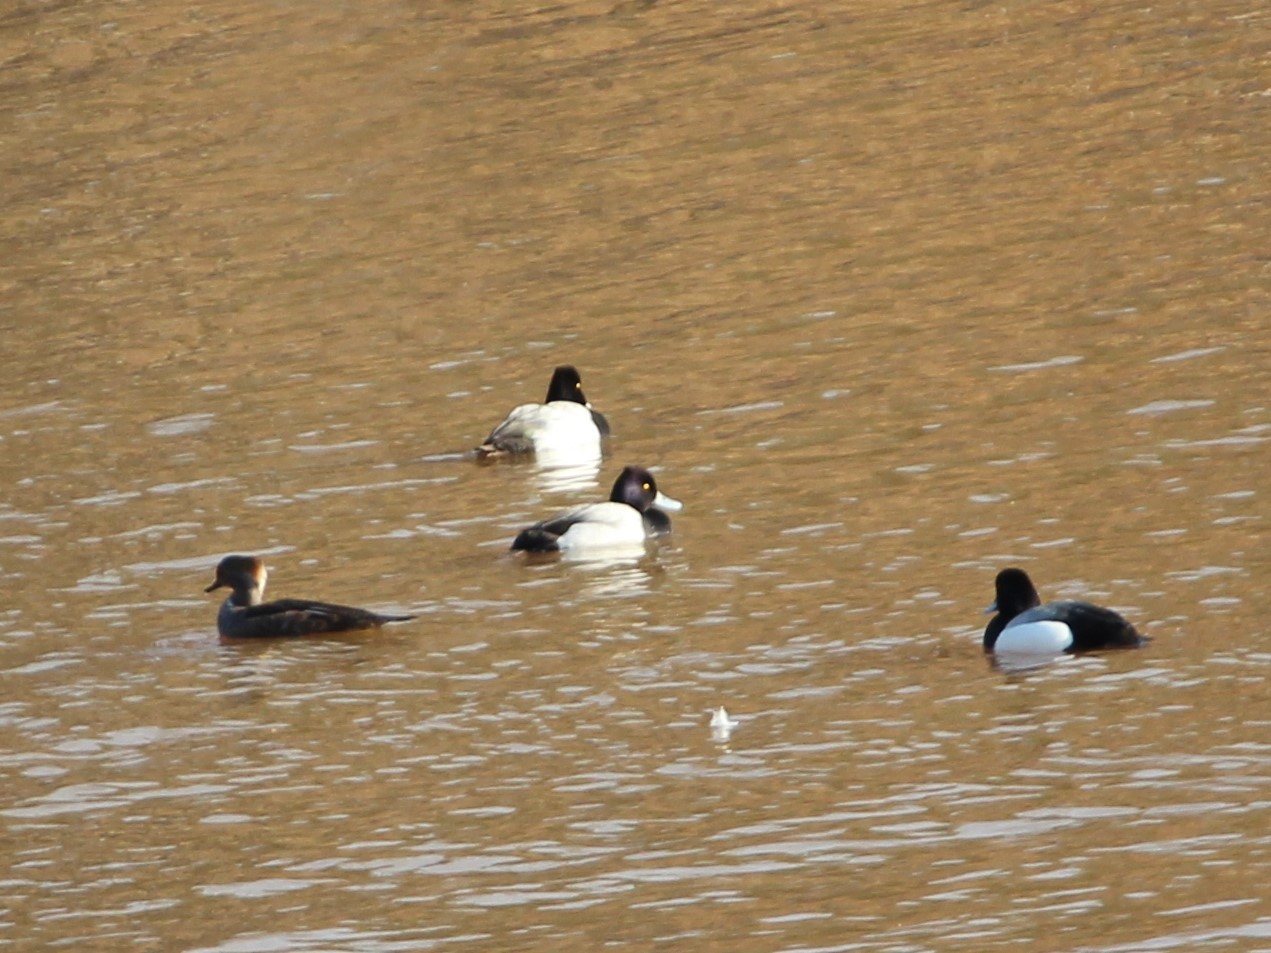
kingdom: Animalia
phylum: Chordata
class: Aves
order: Anseriformes
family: Anatidae
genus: Aythya
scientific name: Aythya affinis
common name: Lesser scaup
